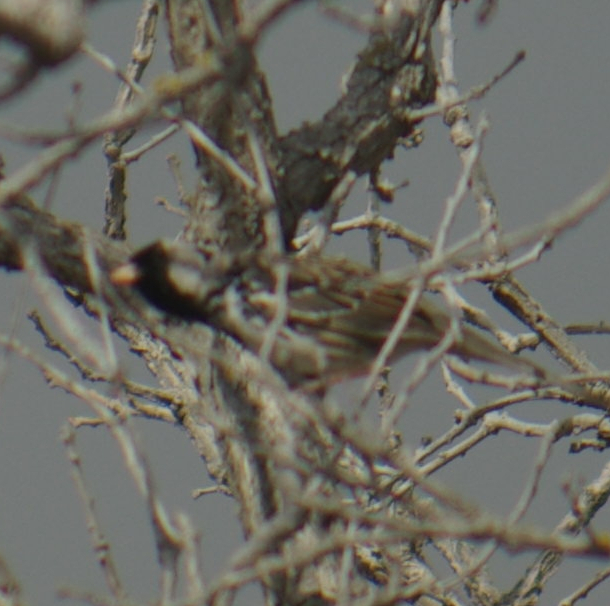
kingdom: Animalia
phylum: Chordata
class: Aves
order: Passeriformes
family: Passerellidae
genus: Zonotrichia
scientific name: Zonotrichia querula
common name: Harris's sparrow
